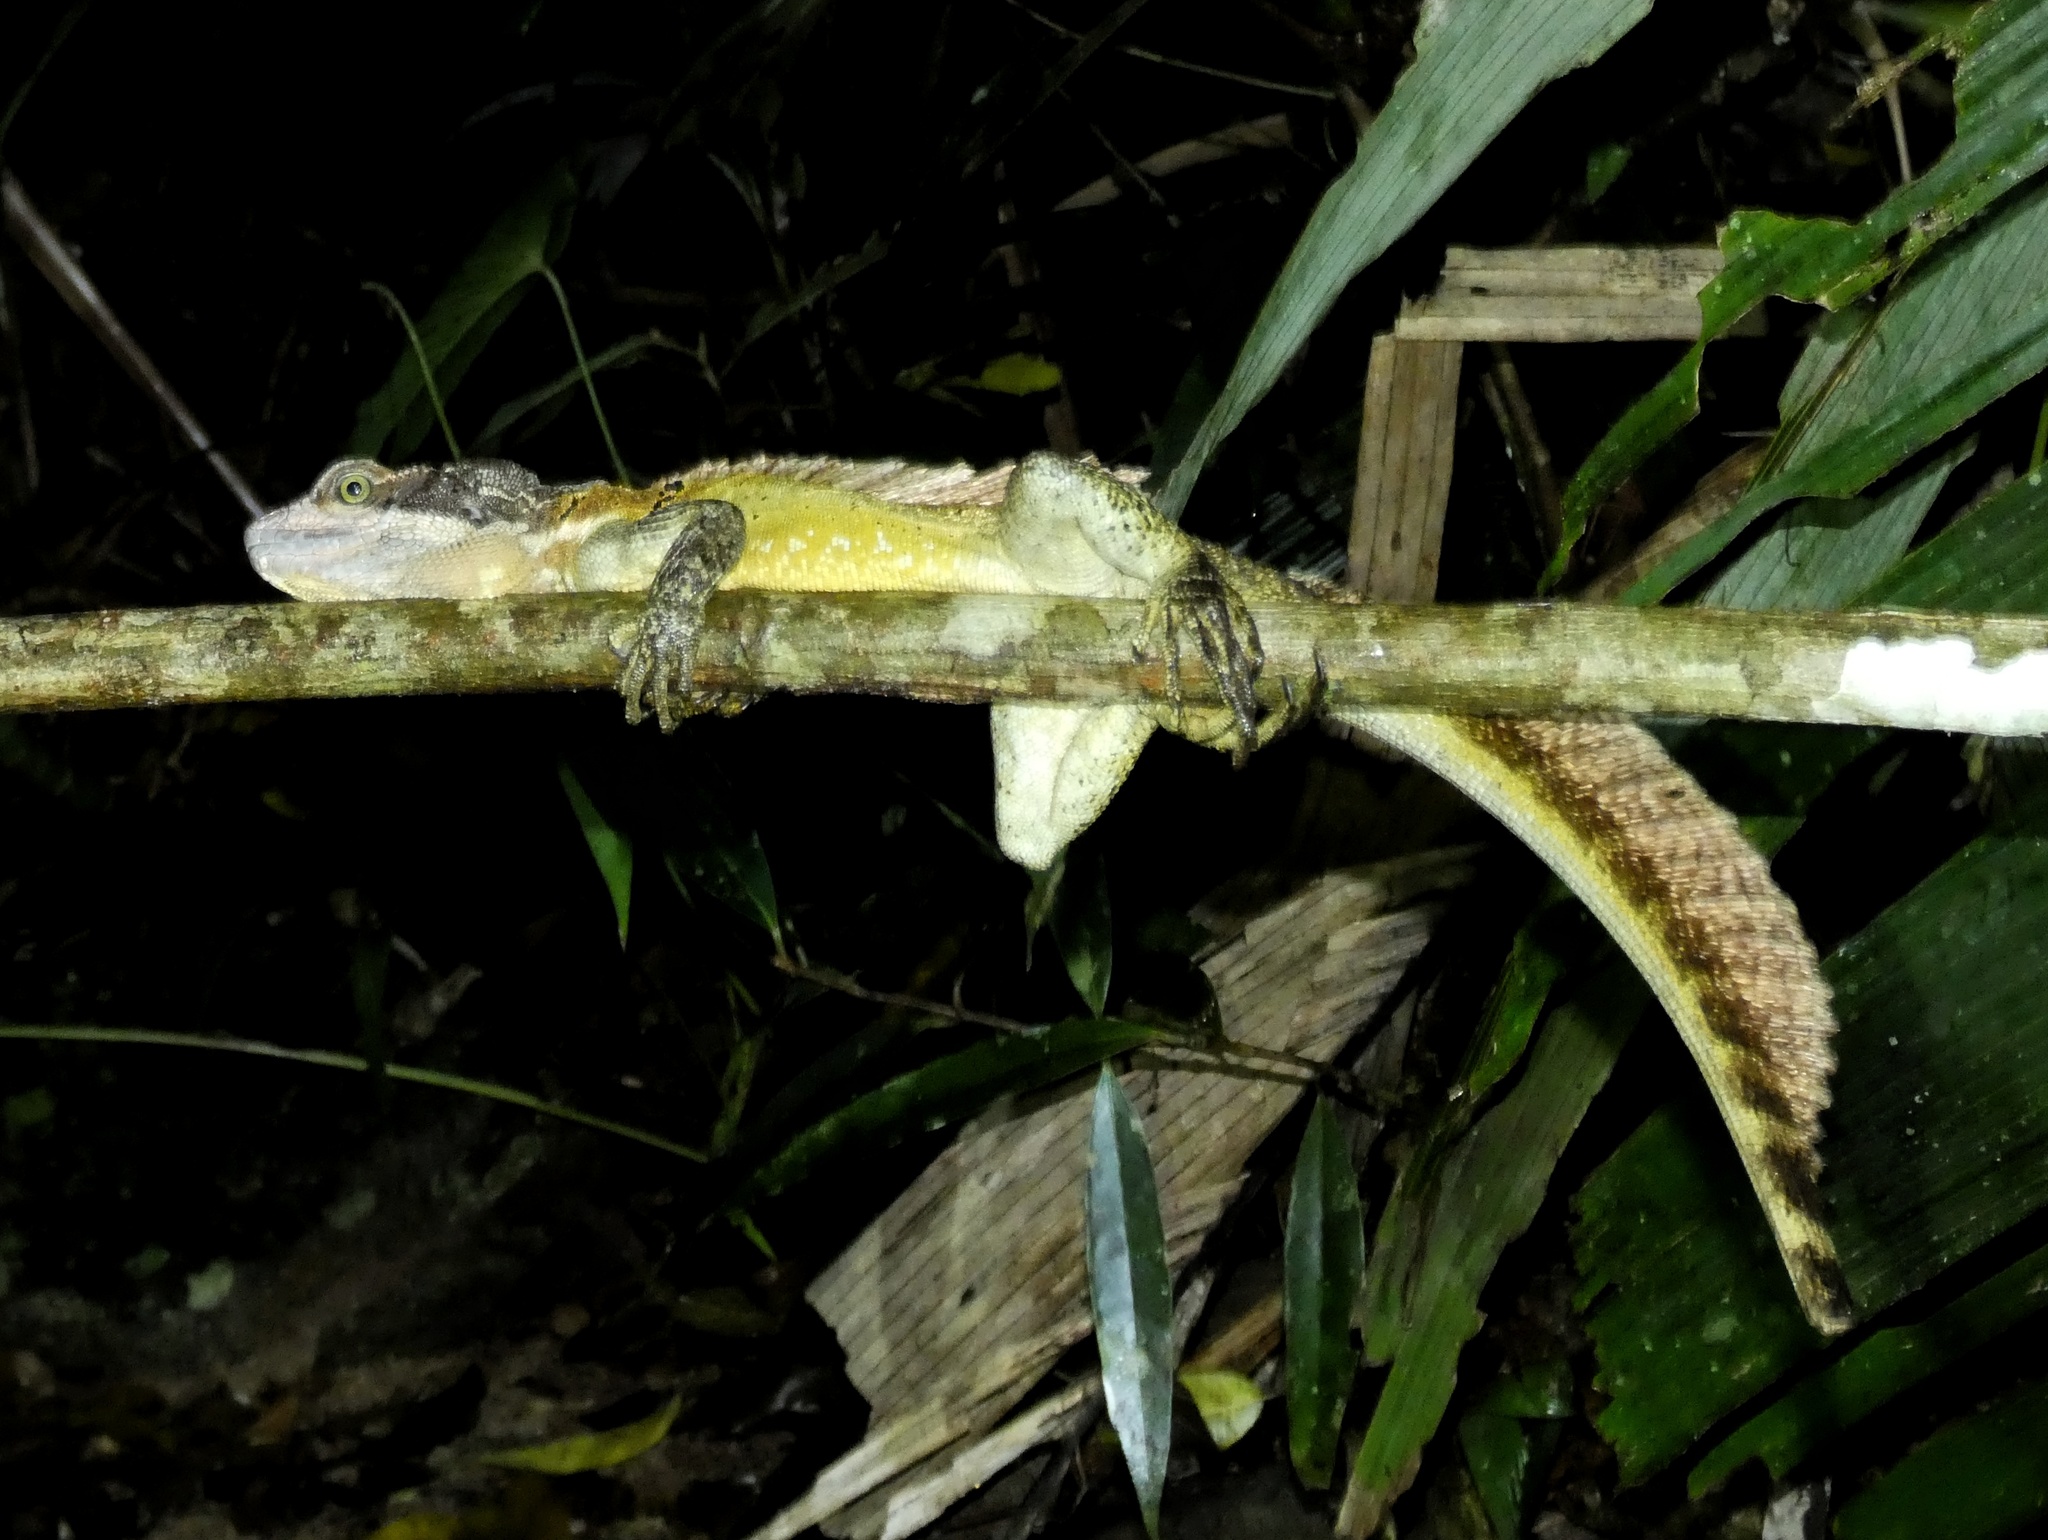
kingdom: Animalia
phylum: Chordata
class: Squamata
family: Corytophanidae
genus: Basiliscus
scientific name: Basiliscus basiliscus
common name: Common basilisk
